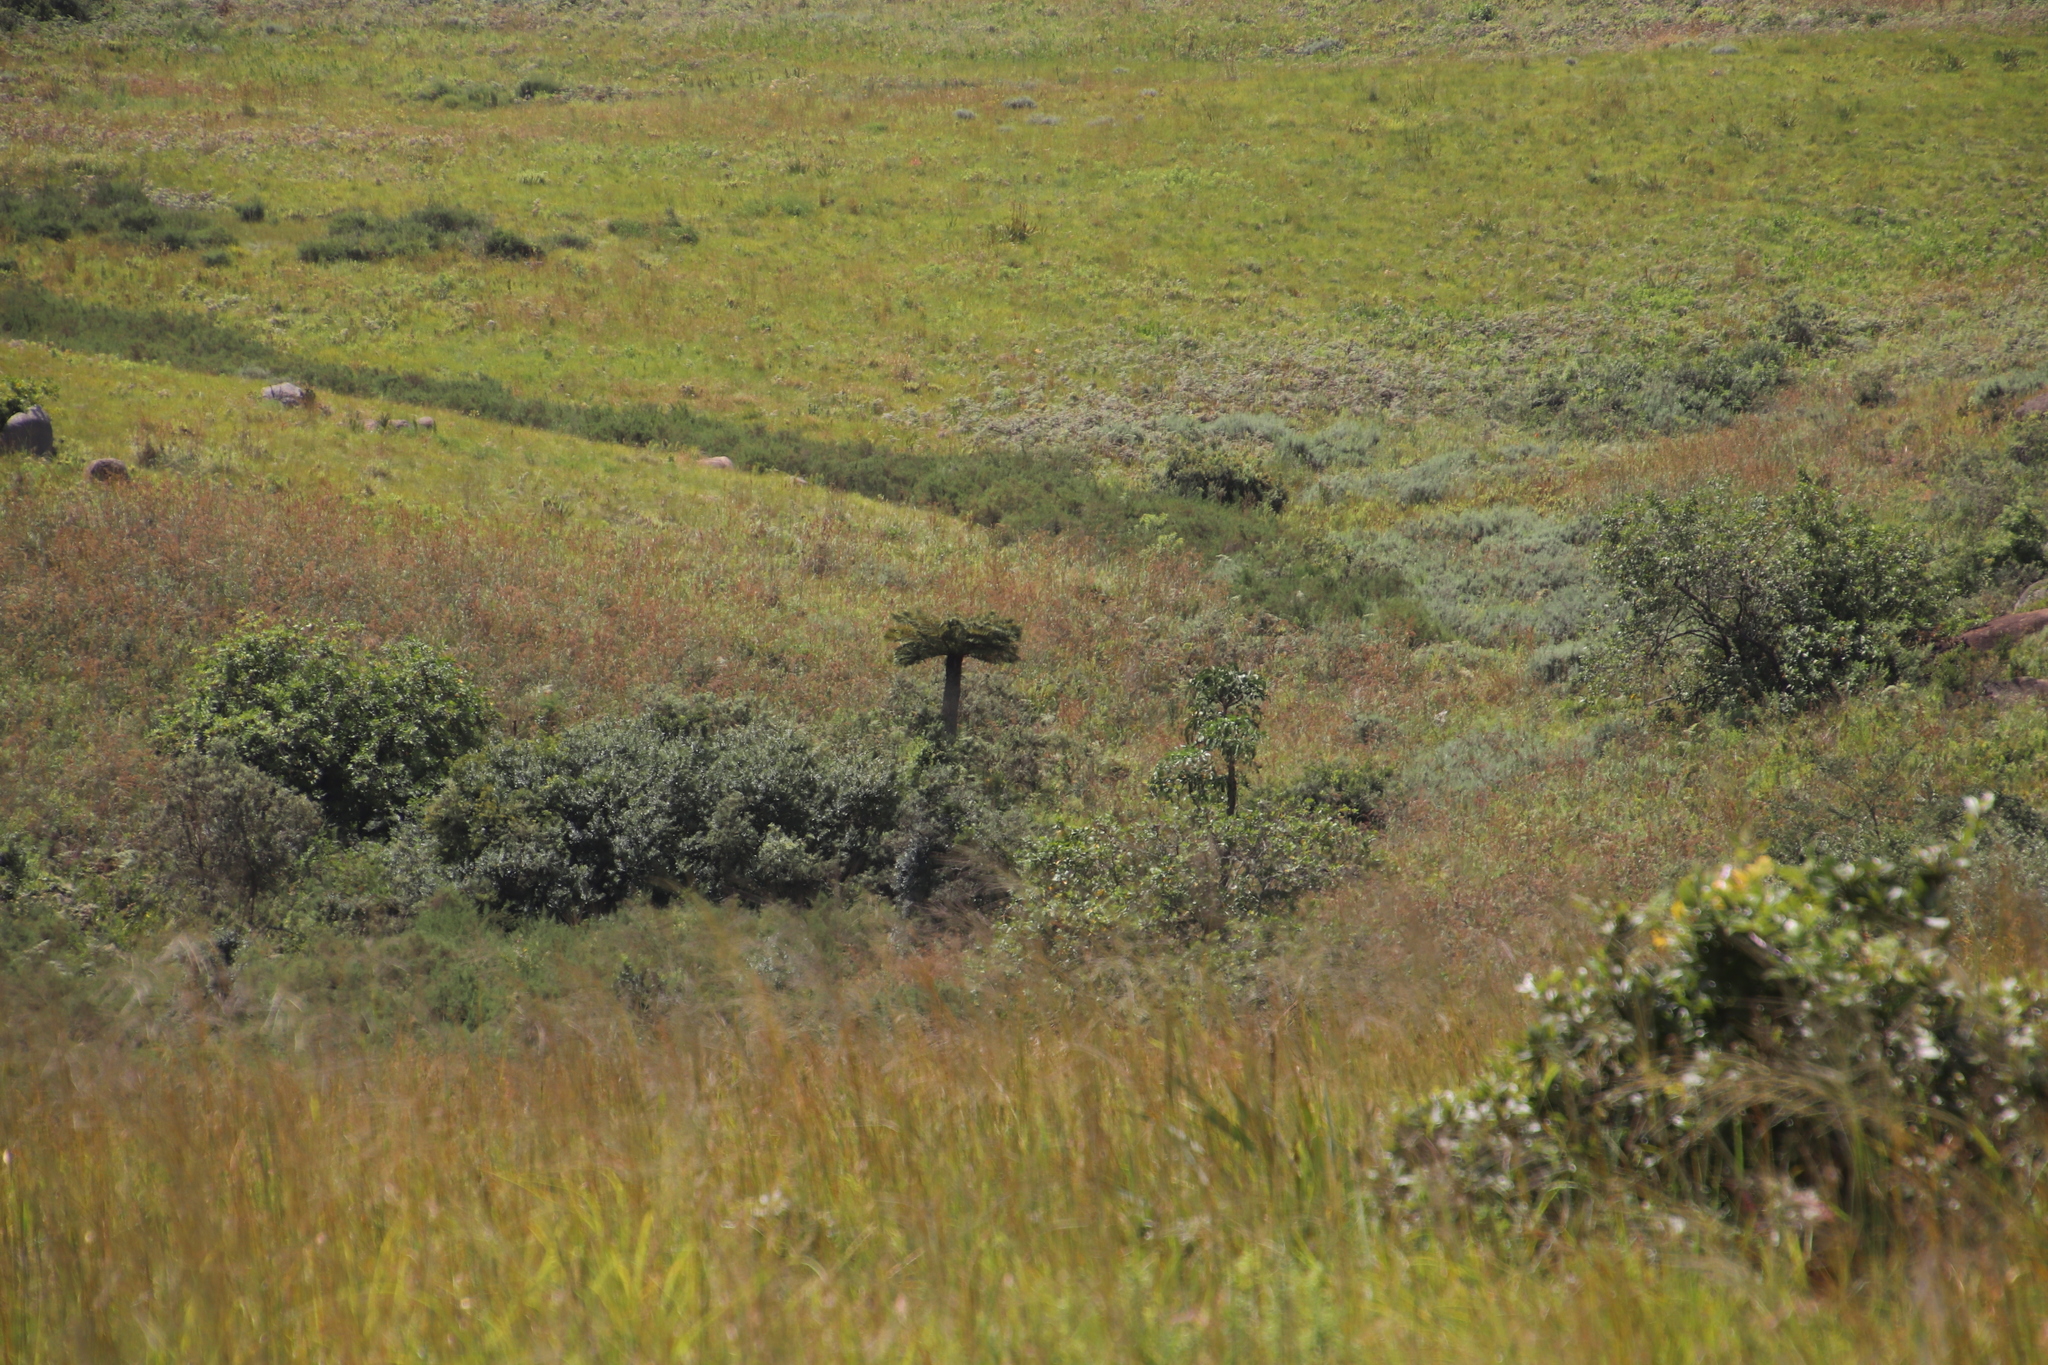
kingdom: Plantae
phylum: Tracheophyta
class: Polypodiopsida
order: Cyatheales
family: Cyatheaceae
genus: Alsophila
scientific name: Alsophila dregei
